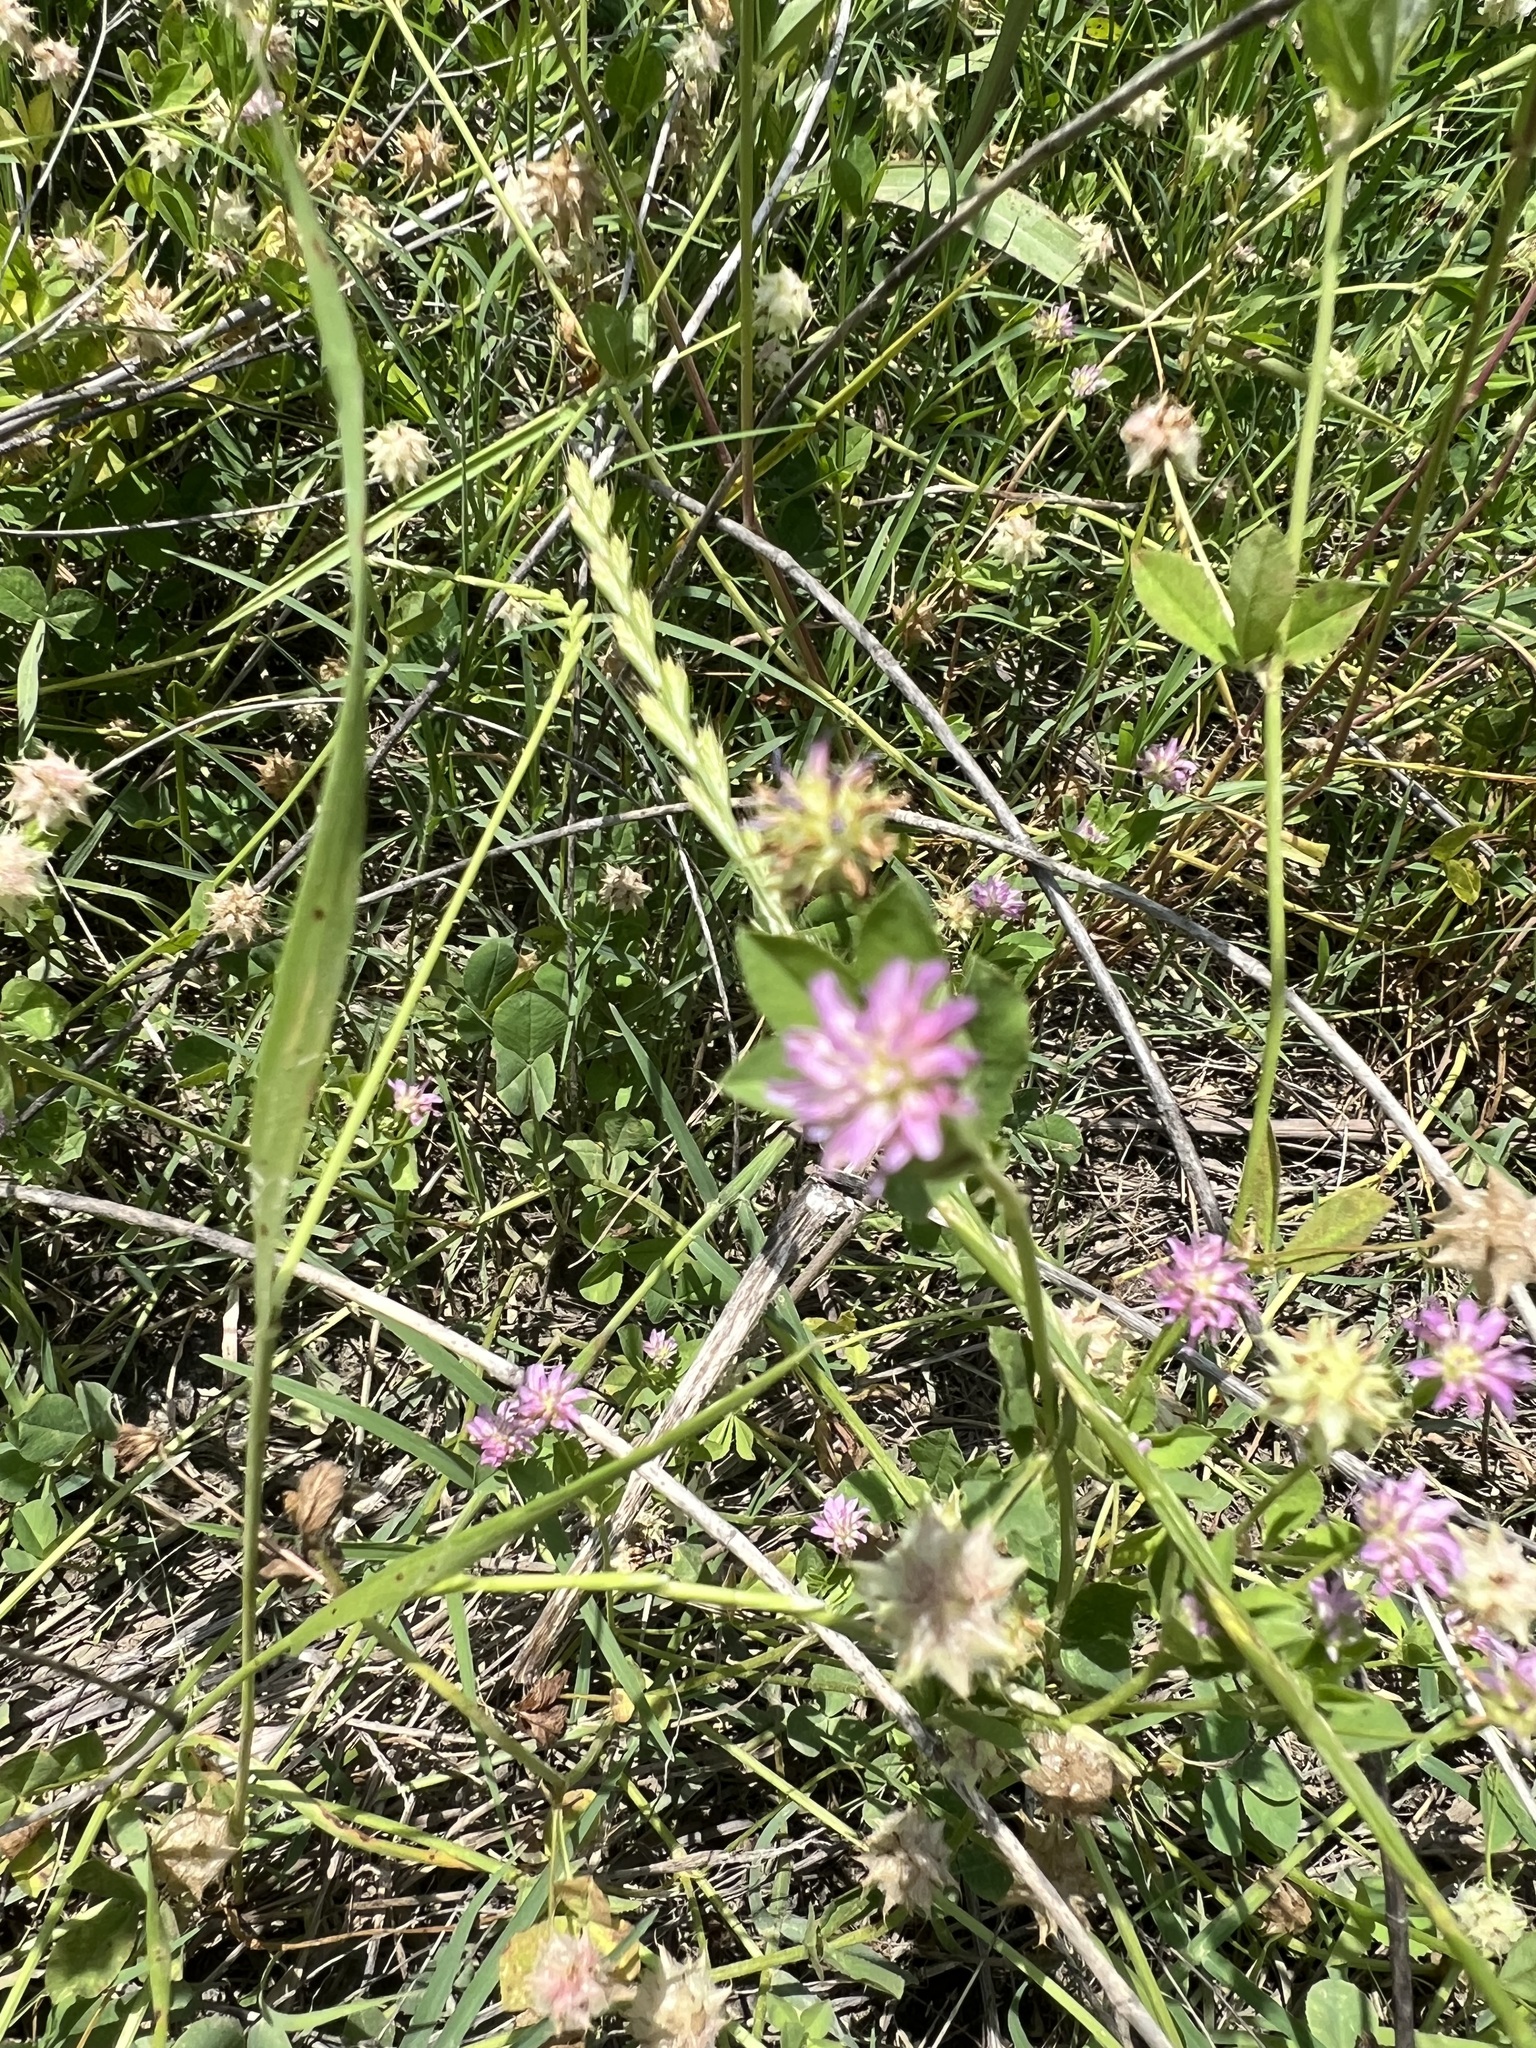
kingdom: Plantae
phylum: Tracheophyta
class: Magnoliopsida
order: Fabales
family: Fabaceae
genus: Trifolium
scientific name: Trifolium resupinatum
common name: Reversed clover
